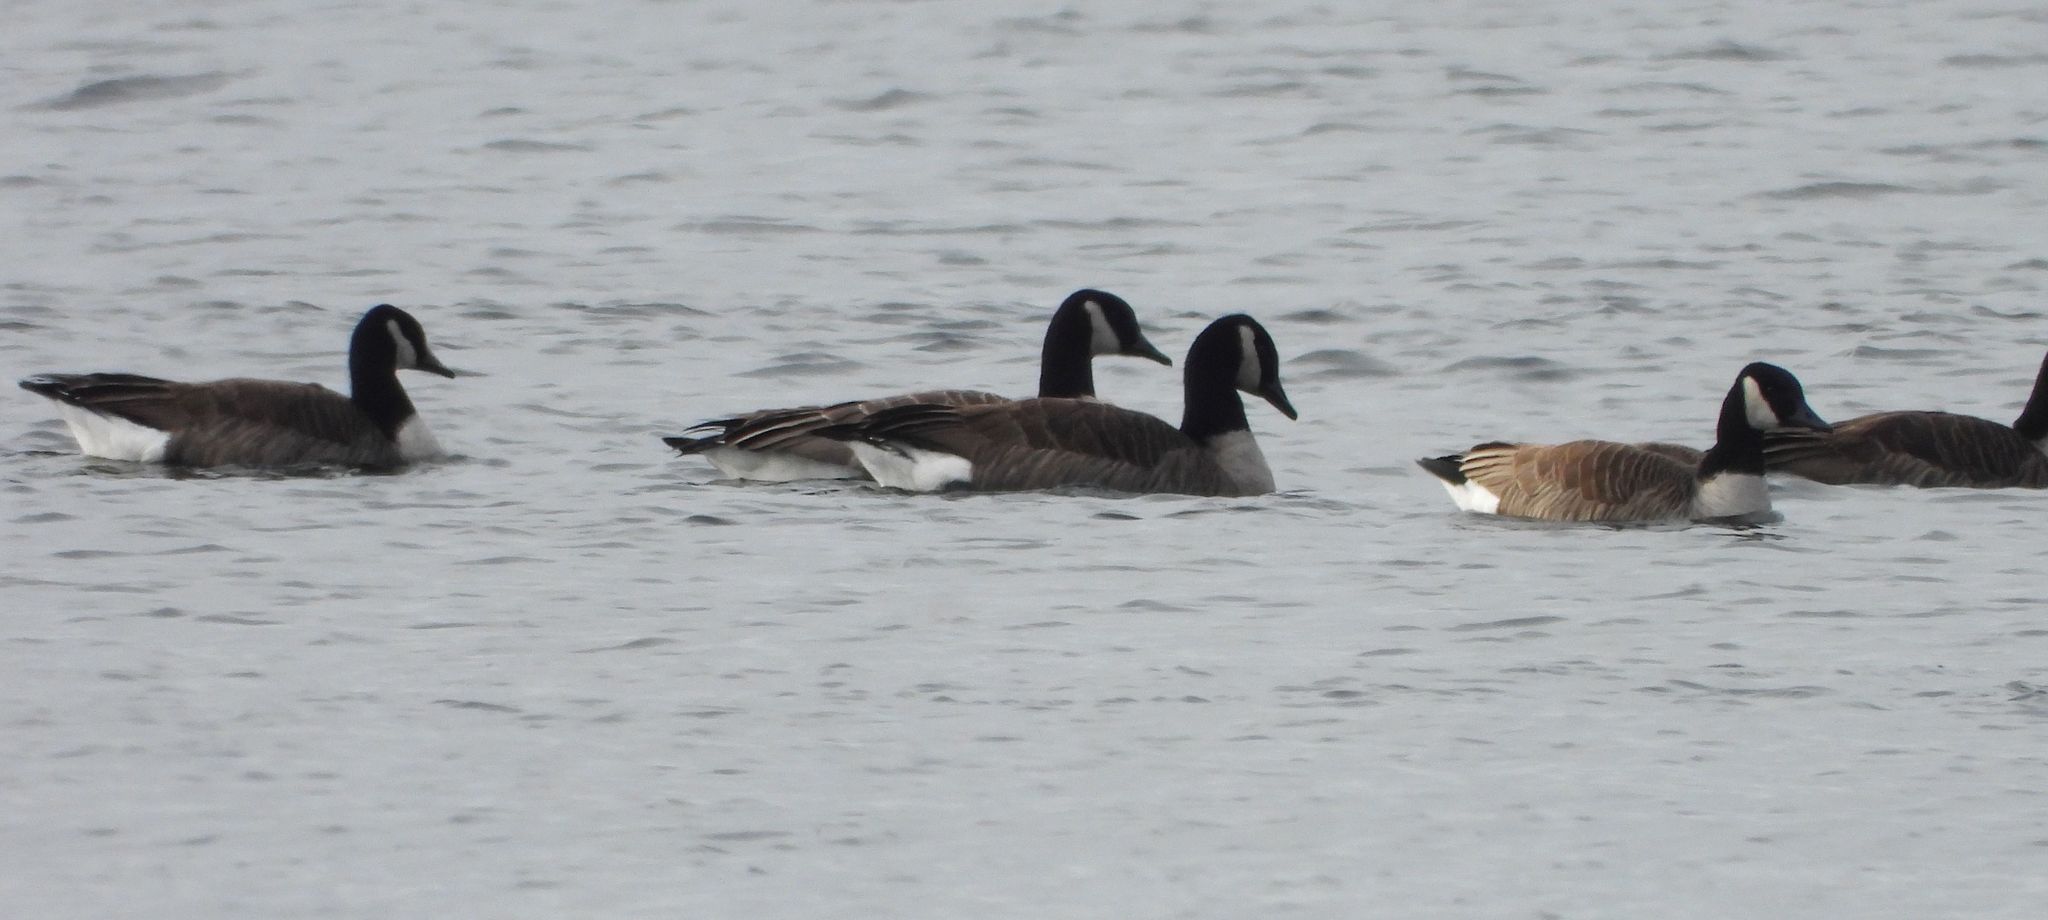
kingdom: Animalia
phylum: Chordata
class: Aves
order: Anseriformes
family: Anatidae
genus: Branta
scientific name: Branta canadensis
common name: Canada goose
